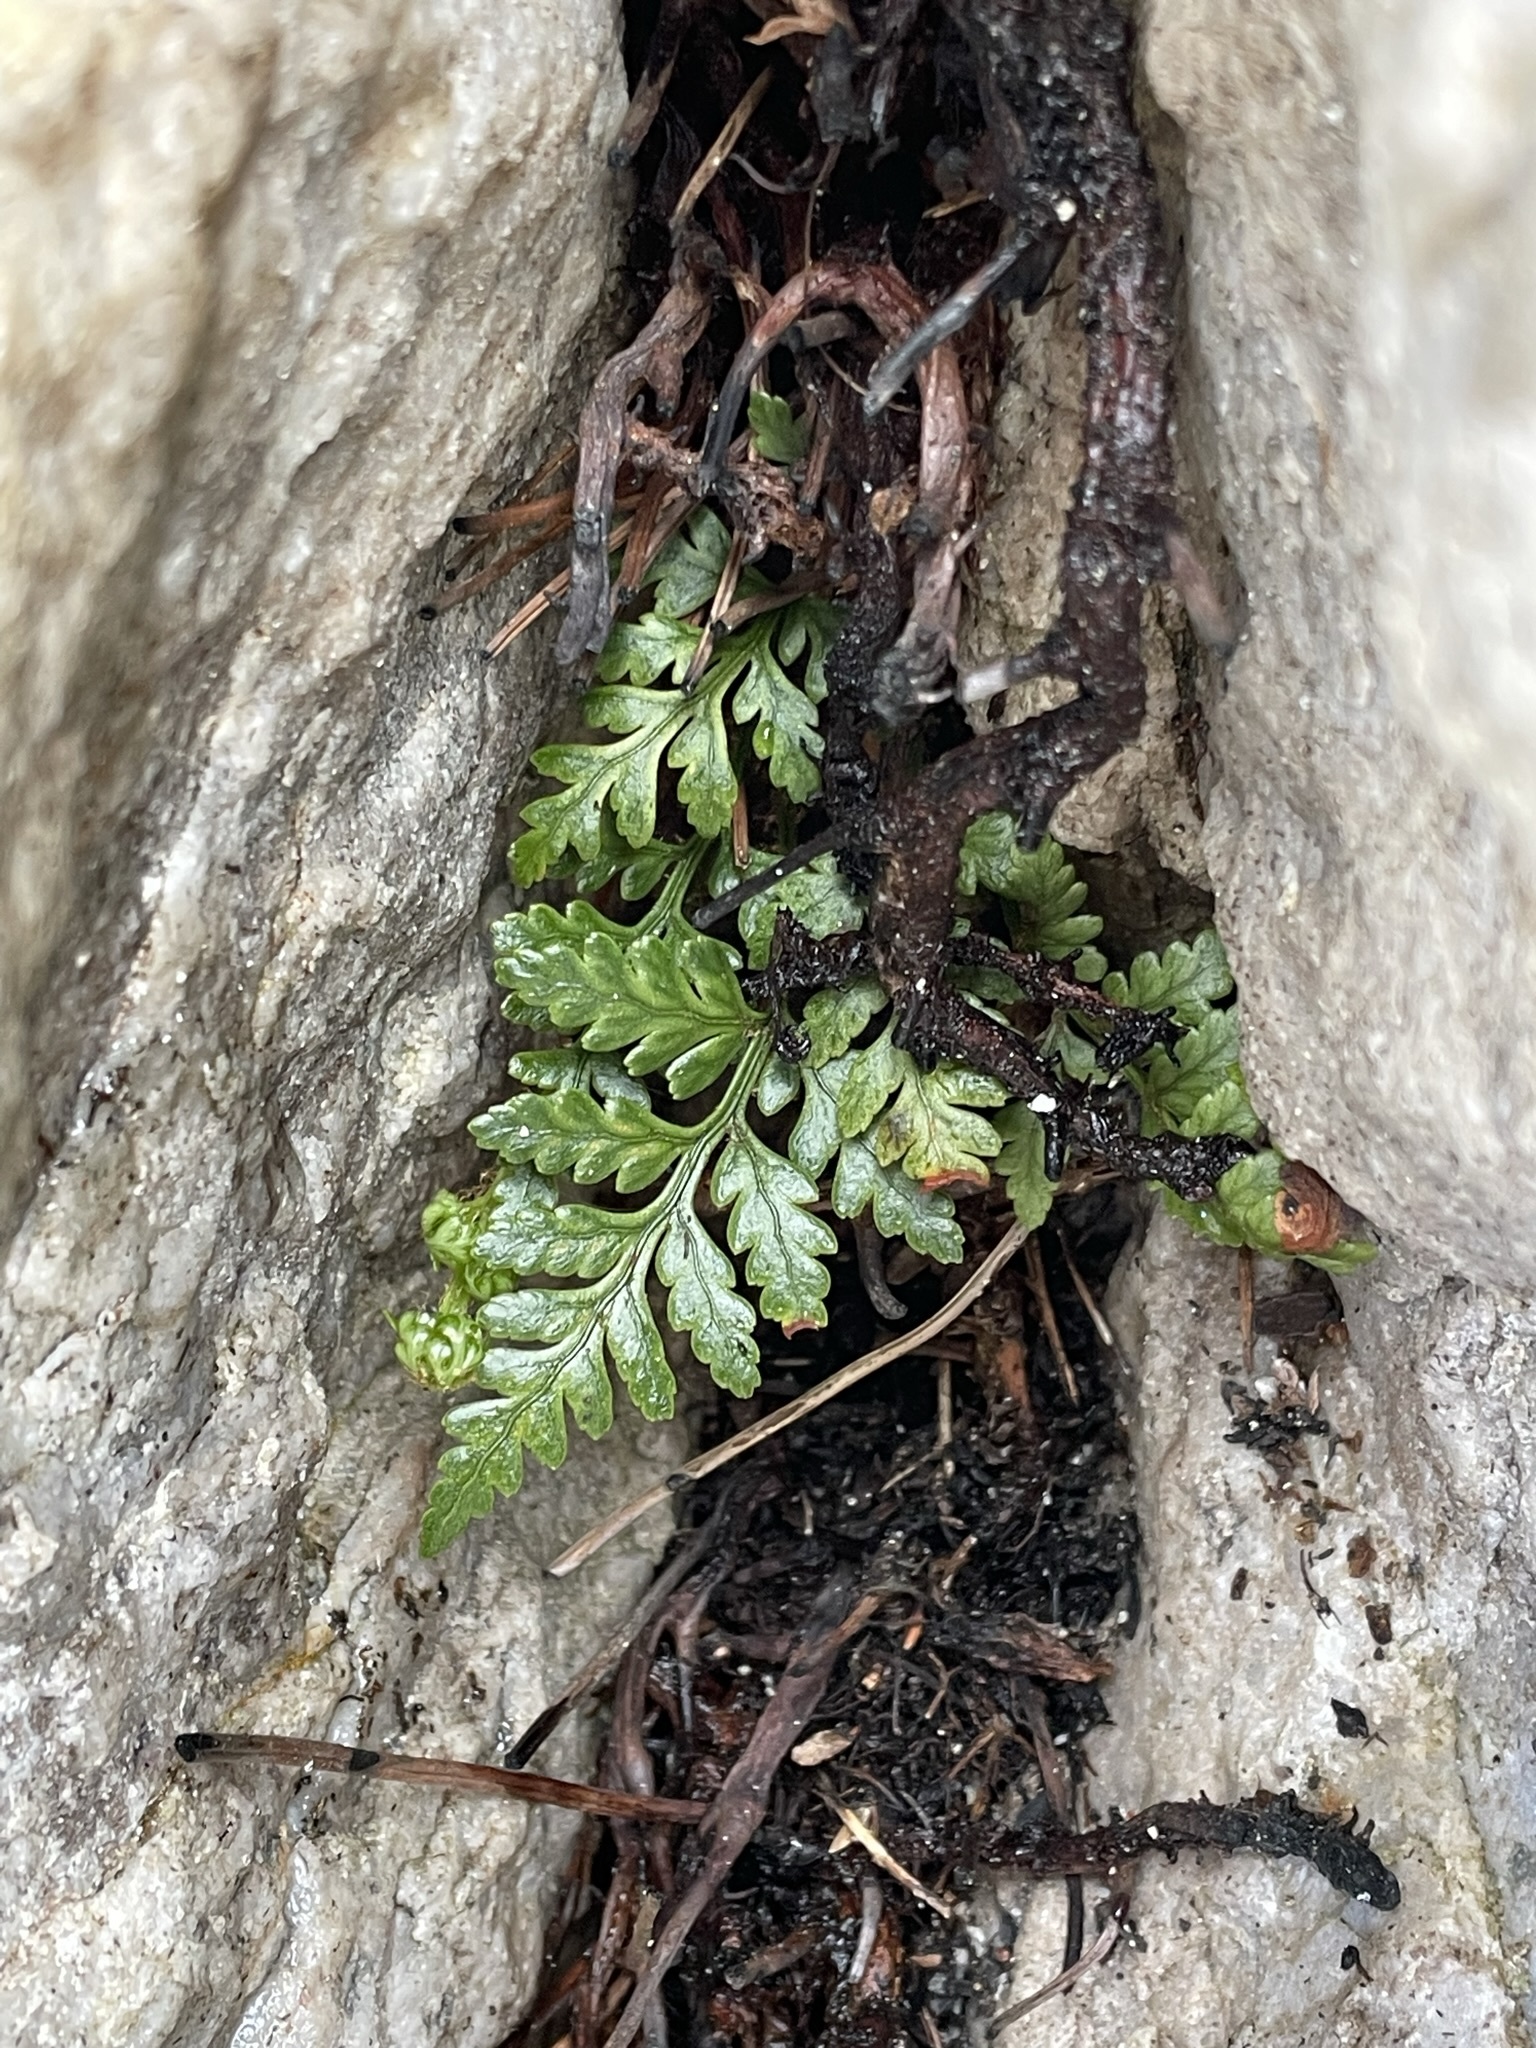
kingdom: Plantae
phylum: Tracheophyta
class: Polypodiopsida
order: Polypodiales
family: Dryopteridaceae
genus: Rumohra
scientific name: Rumohra adiantiformis
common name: Leather fern
